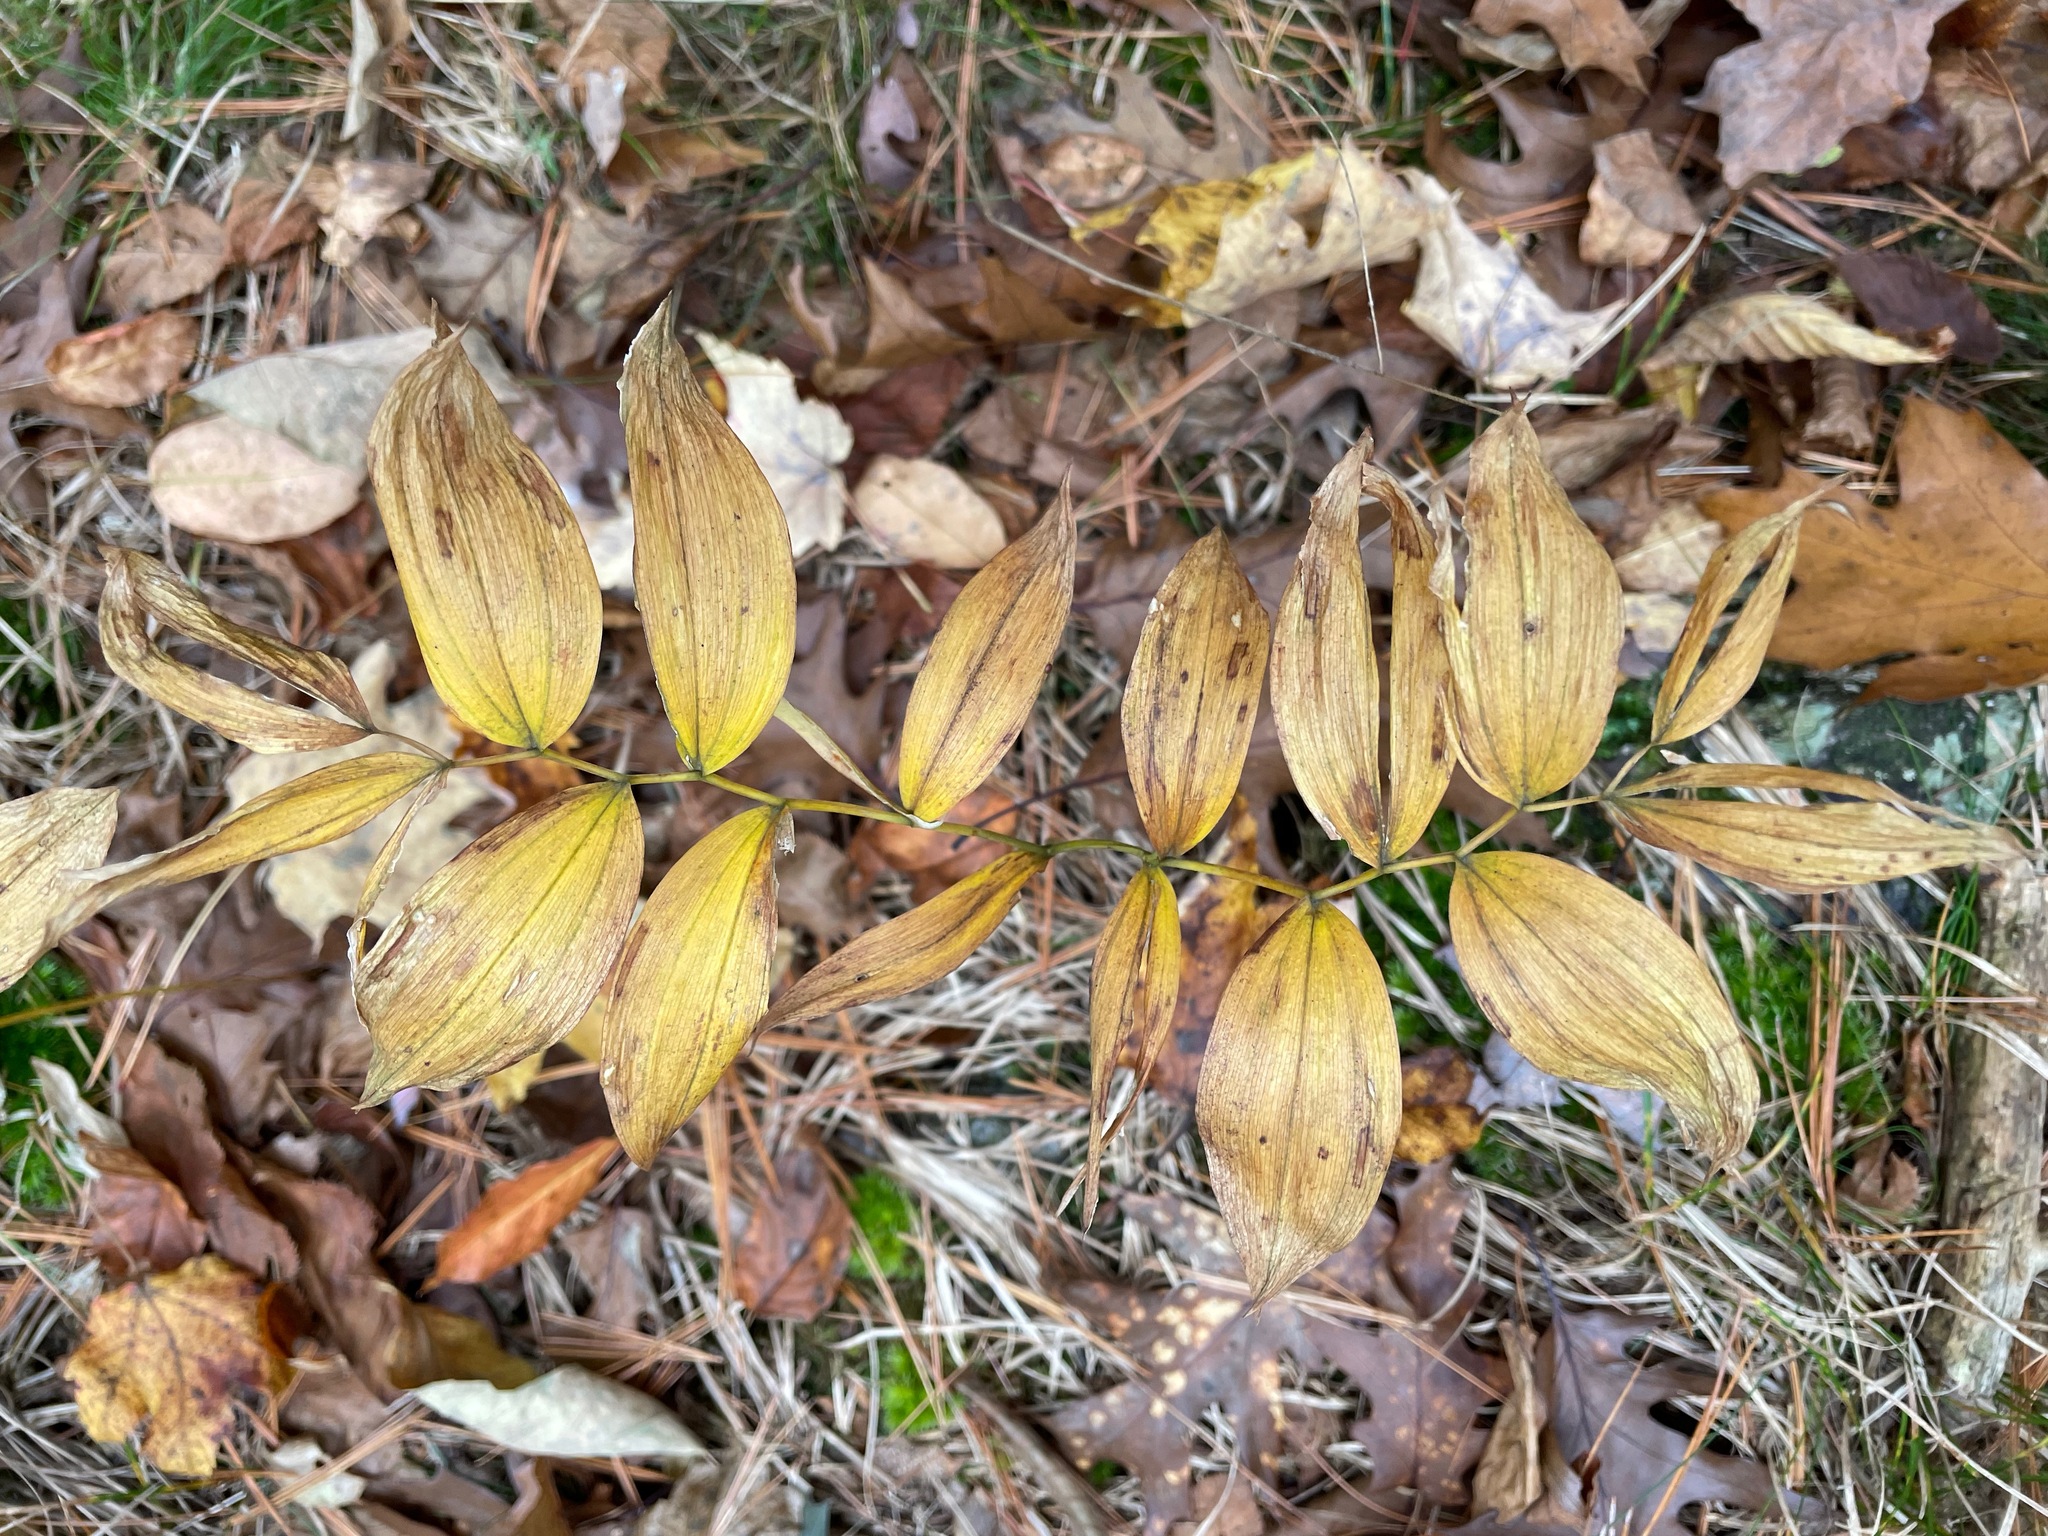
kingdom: Plantae
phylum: Tracheophyta
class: Liliopsida
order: Liliales
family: Colchicaceae
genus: Uvularia
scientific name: Uvularia sessilifolia
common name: Straw-lily
